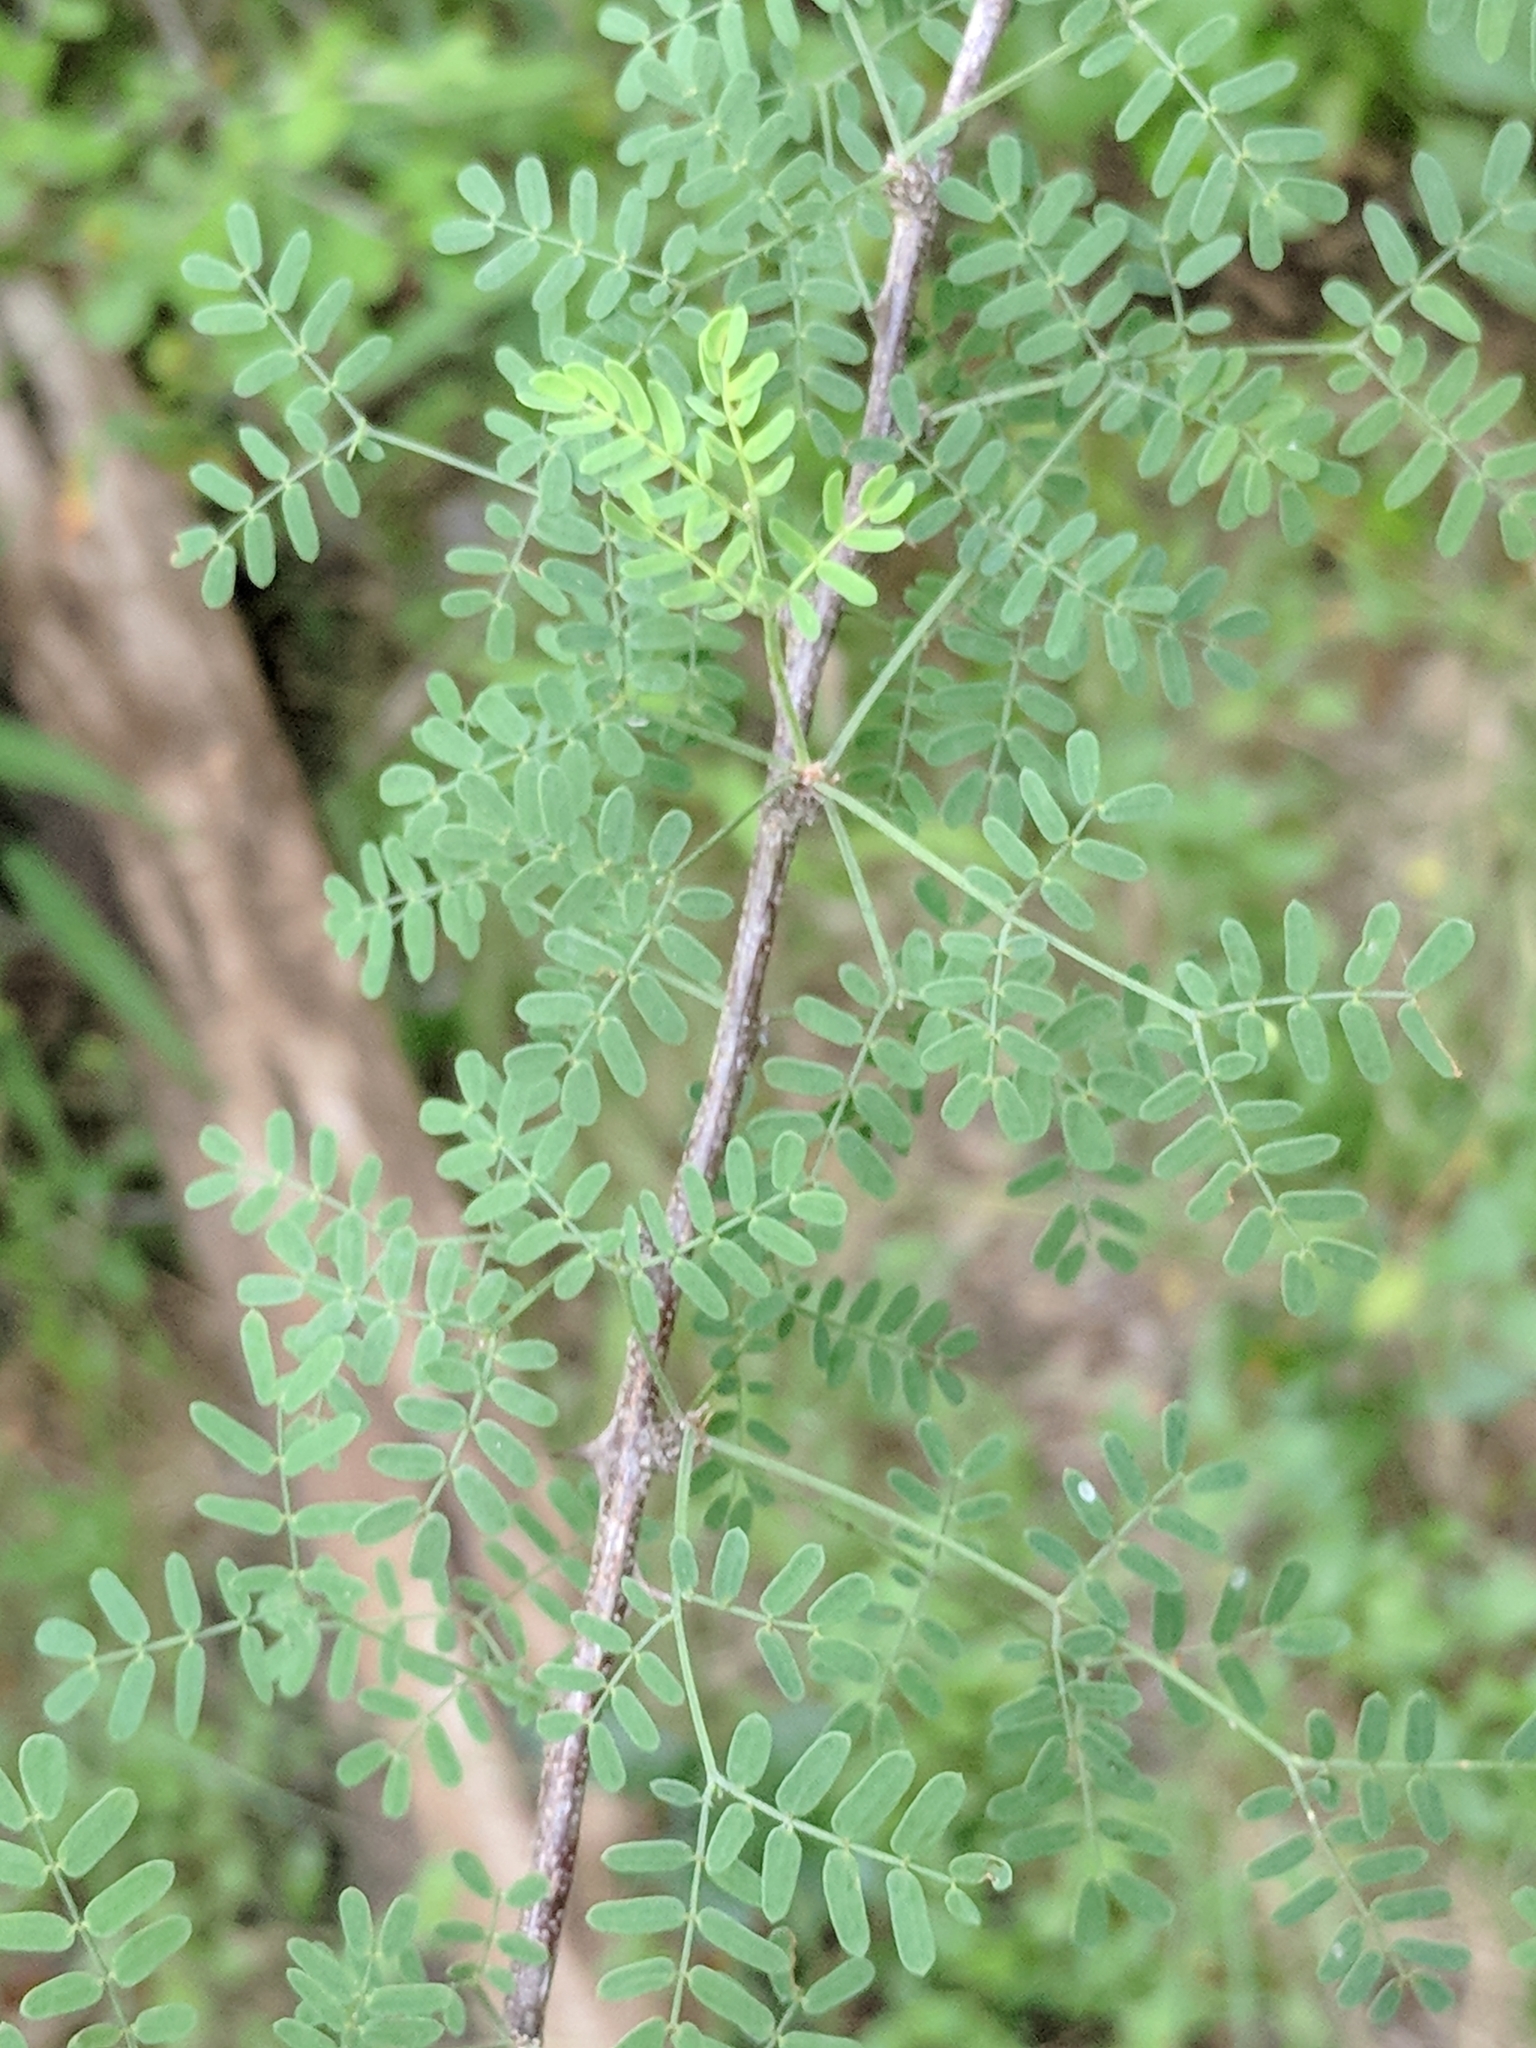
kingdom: Plantae
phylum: Tracheophyta
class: Magnoliopsida
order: Fabales
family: Fabaceae
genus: Mimosa
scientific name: Mimosa texana
